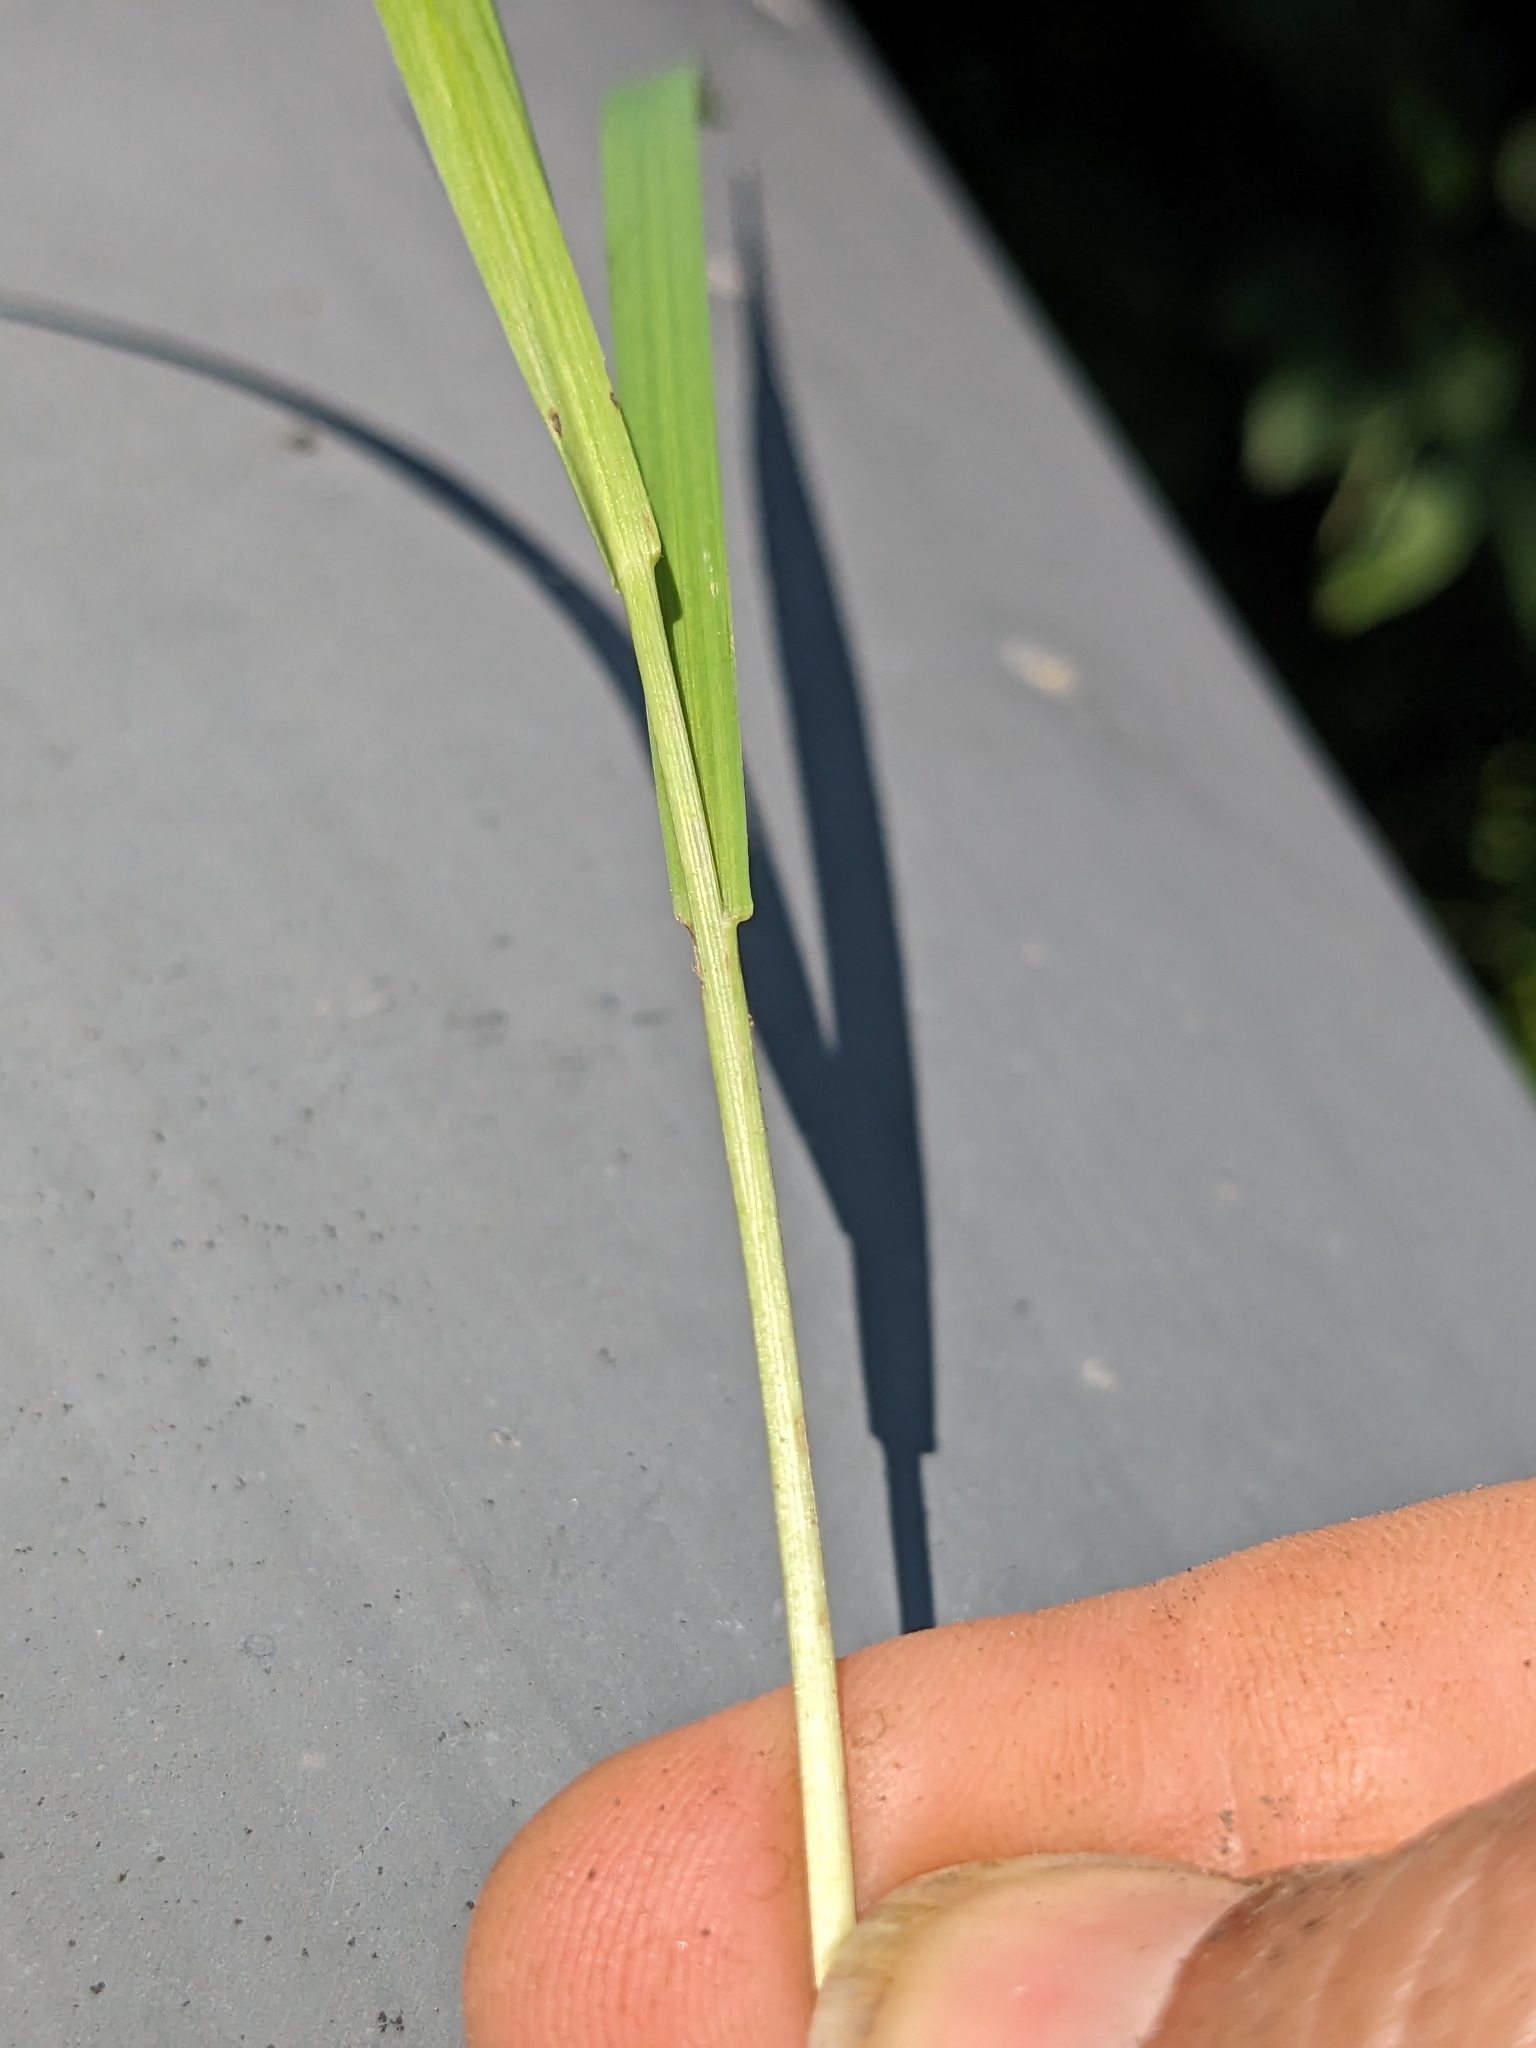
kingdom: Plantae
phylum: Tracheophyta
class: Liliopsida
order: Poales
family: Poaceae
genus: Bromus
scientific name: Bromus inermis
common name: Smooth brome
